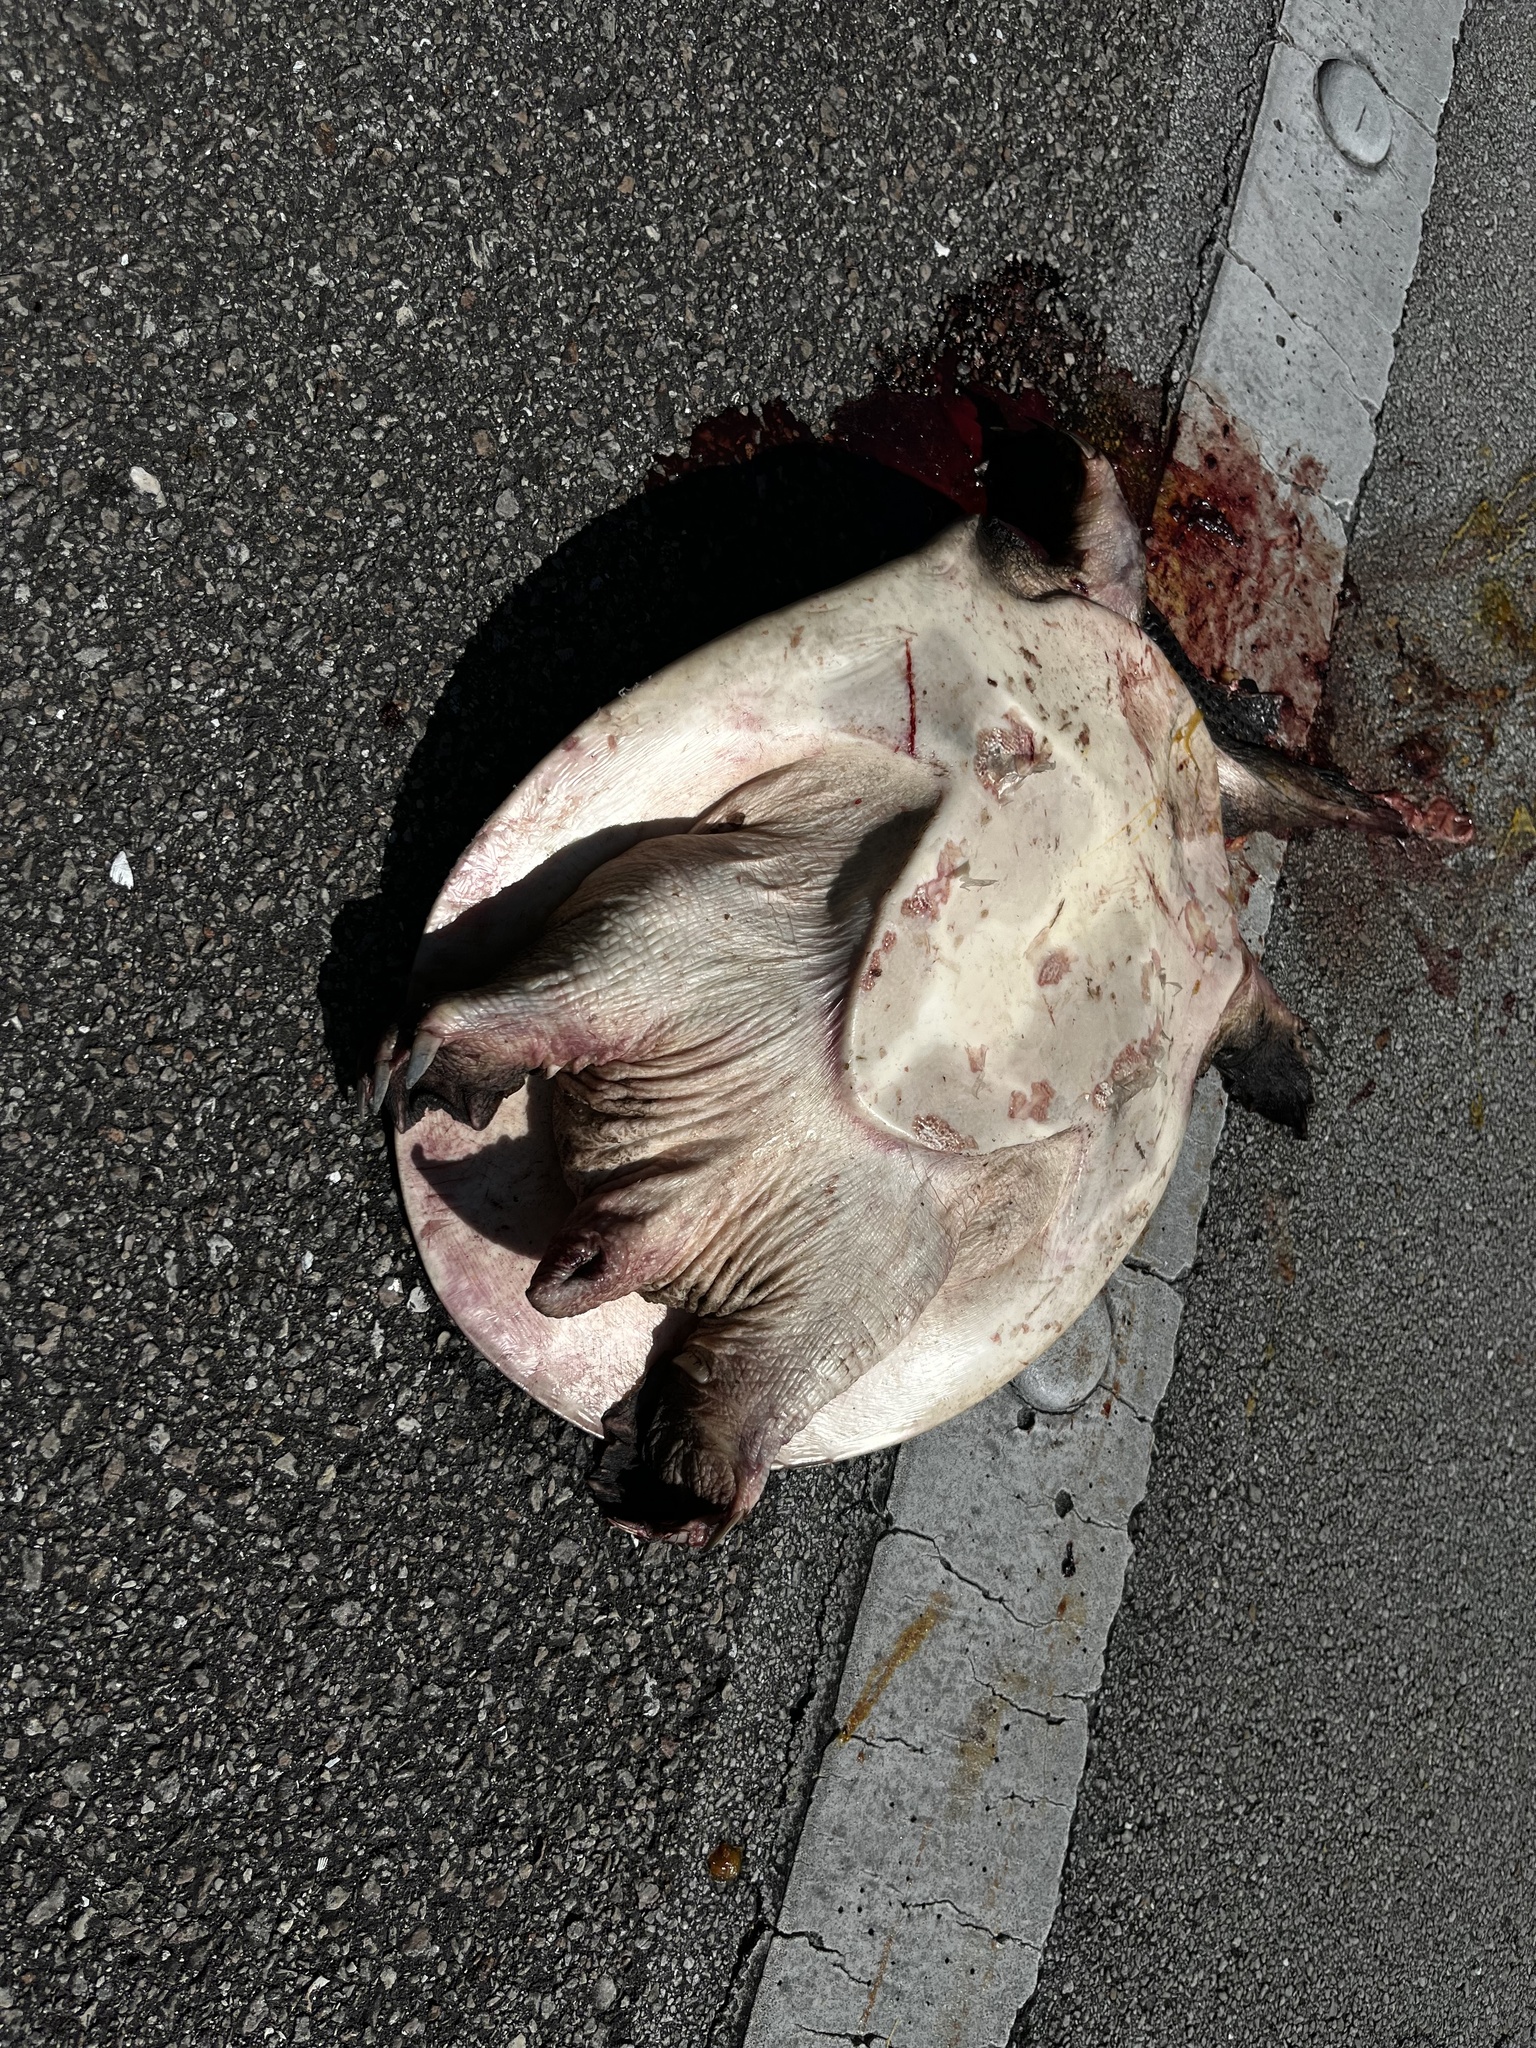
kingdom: Animalia
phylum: Chordata
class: Testudines
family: Trionychidae
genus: Apalone
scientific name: Apalone ferox
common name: Florida softshell turtle
